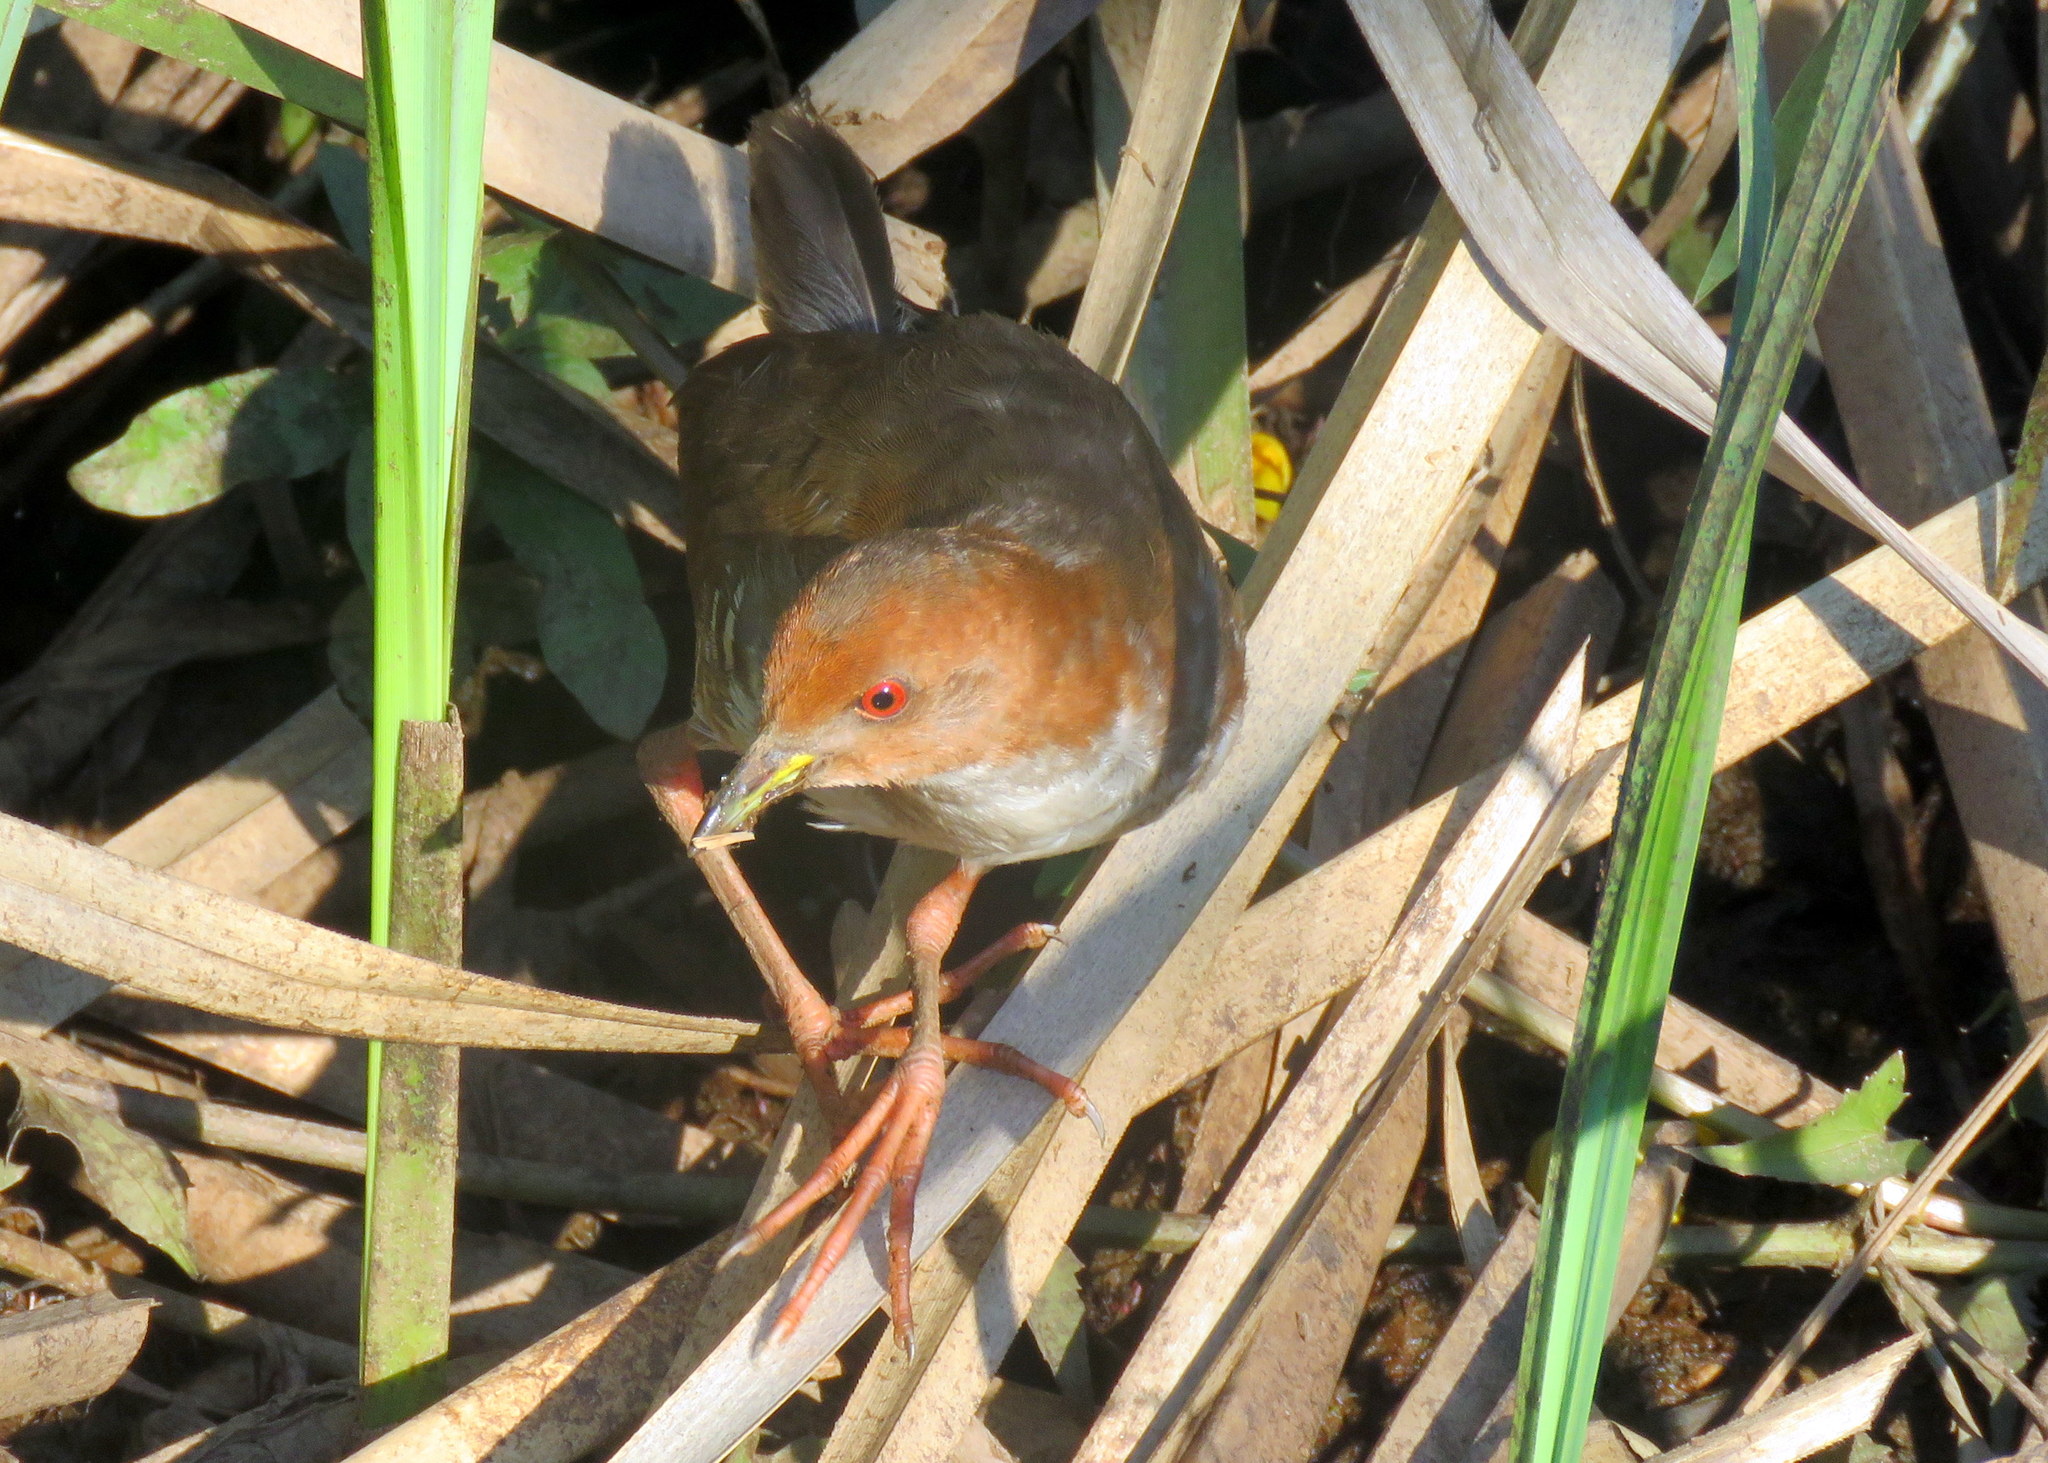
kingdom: Animalia
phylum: Chordata
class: Aves
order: Gruiformes
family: Rallidae
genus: Laterallus
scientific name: Laterallus leucopyrrhus
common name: Red-and-white crake
